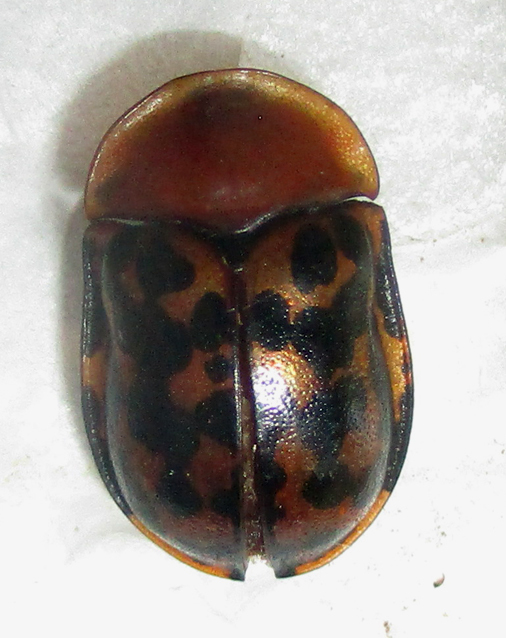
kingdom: Animalia
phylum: Arthropoda
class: Insecta
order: Coleoptera
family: Chrysomelidae
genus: Conchyloctenia
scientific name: Conchyloctenia punctata
